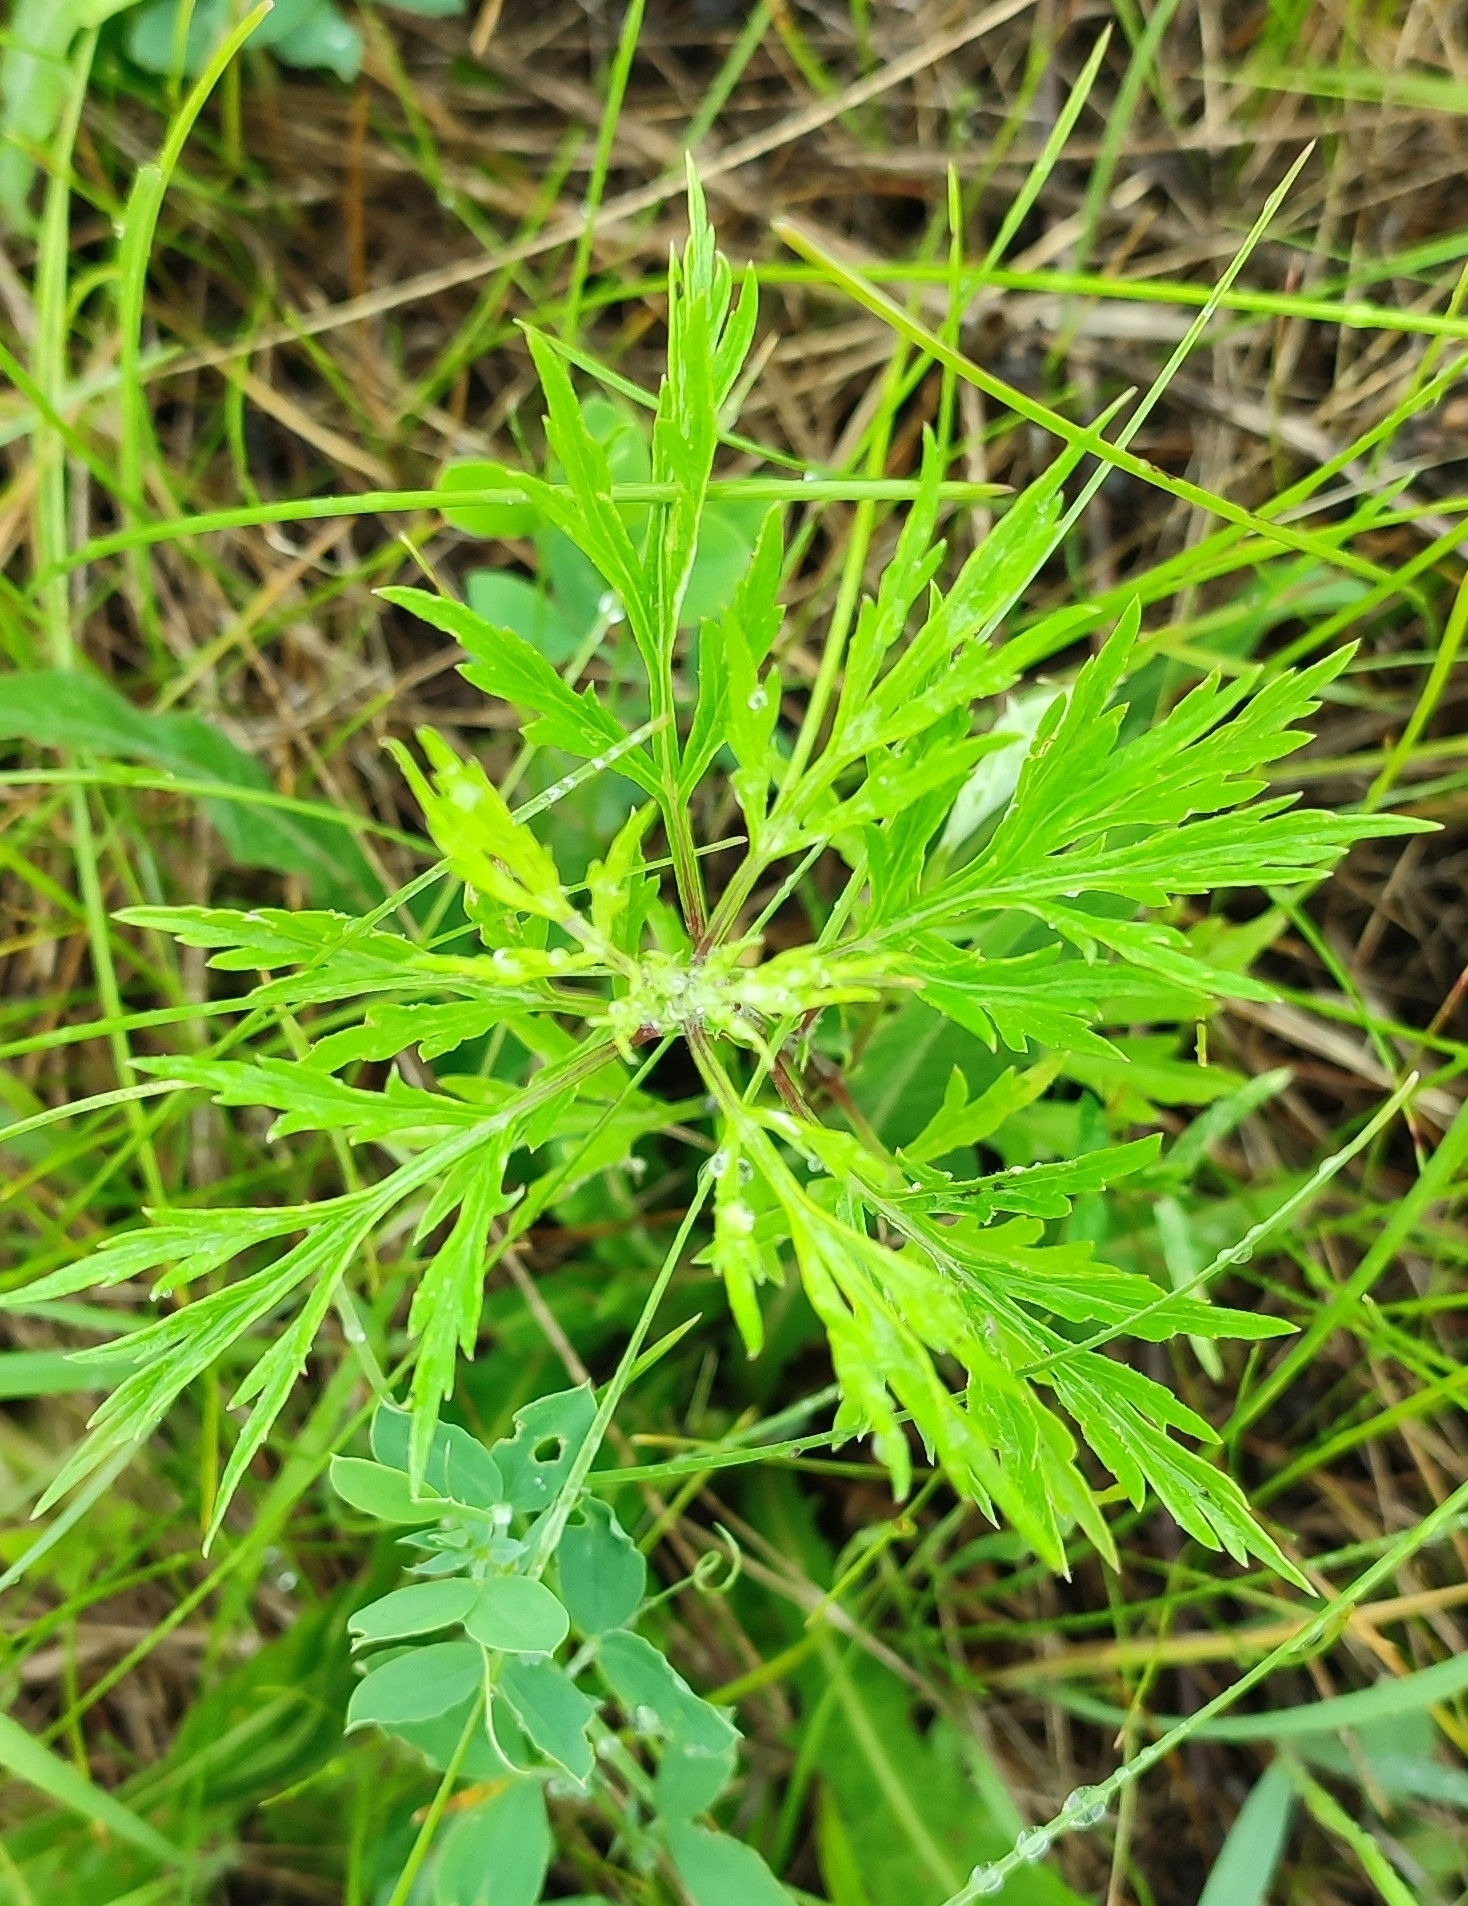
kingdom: Plantae
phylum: Tracheophyta
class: Magnoliopsida
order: Asterales
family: Asteraceae
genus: Artemisia
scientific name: Artemisia vulgaris
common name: Mugwort
